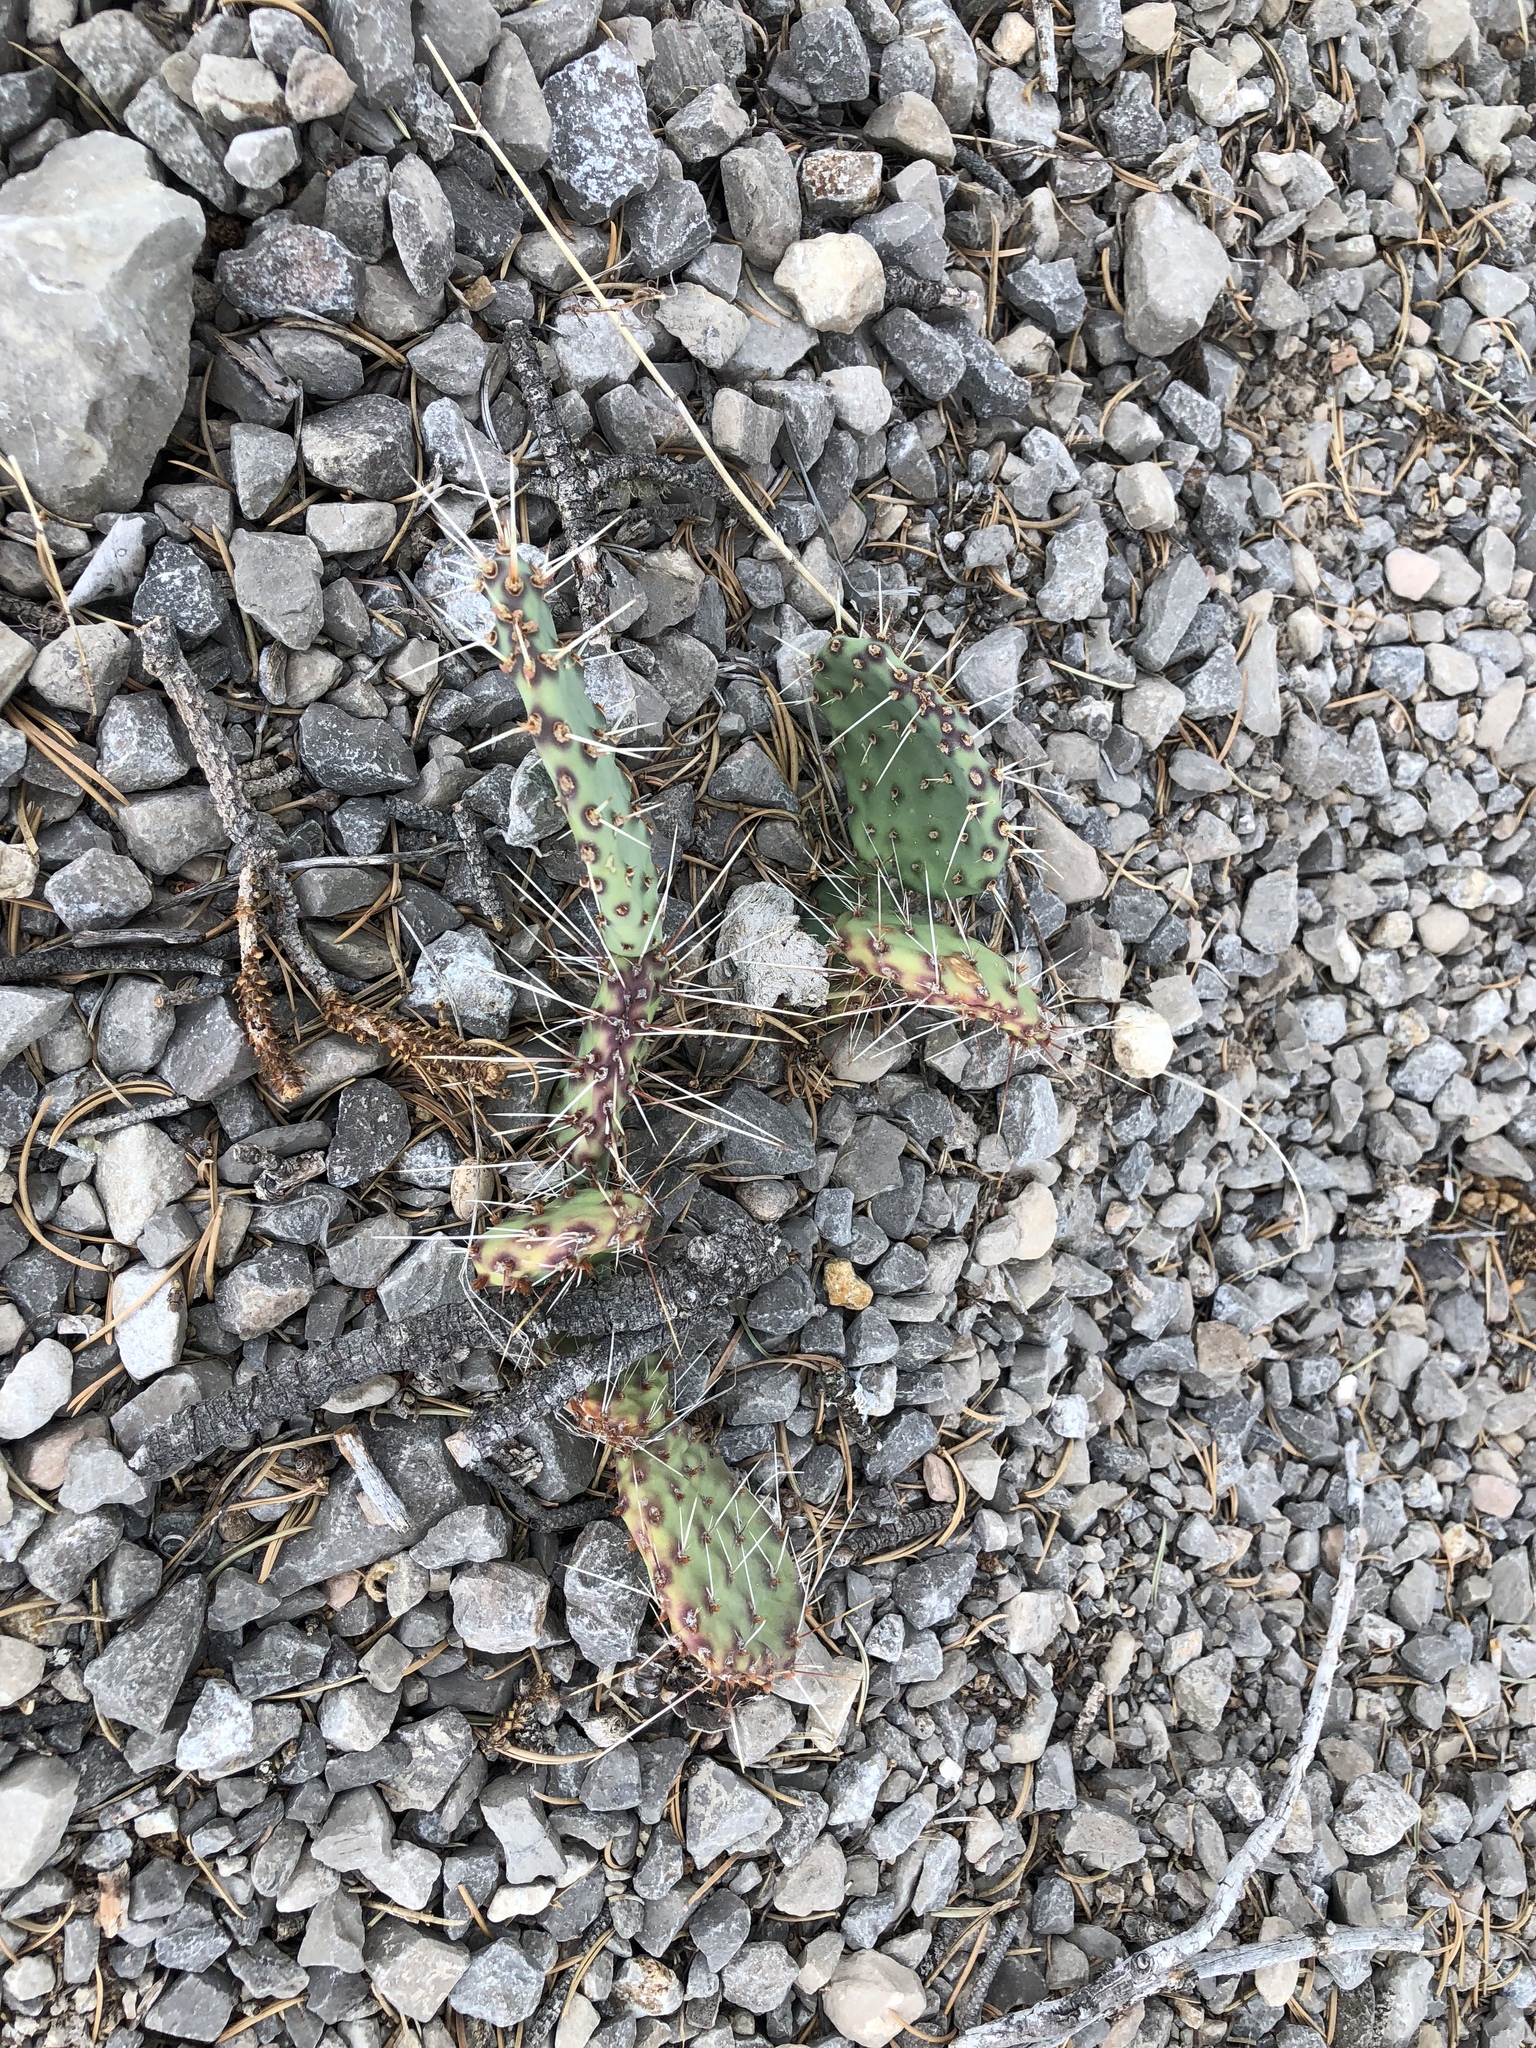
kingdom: Plantae
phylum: Tracheophyta
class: Magnoliopsida
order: Caryophyllales
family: Cactaceae
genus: Opuntia
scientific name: Opuntia phaeacantha
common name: New mexico prickly-pear
